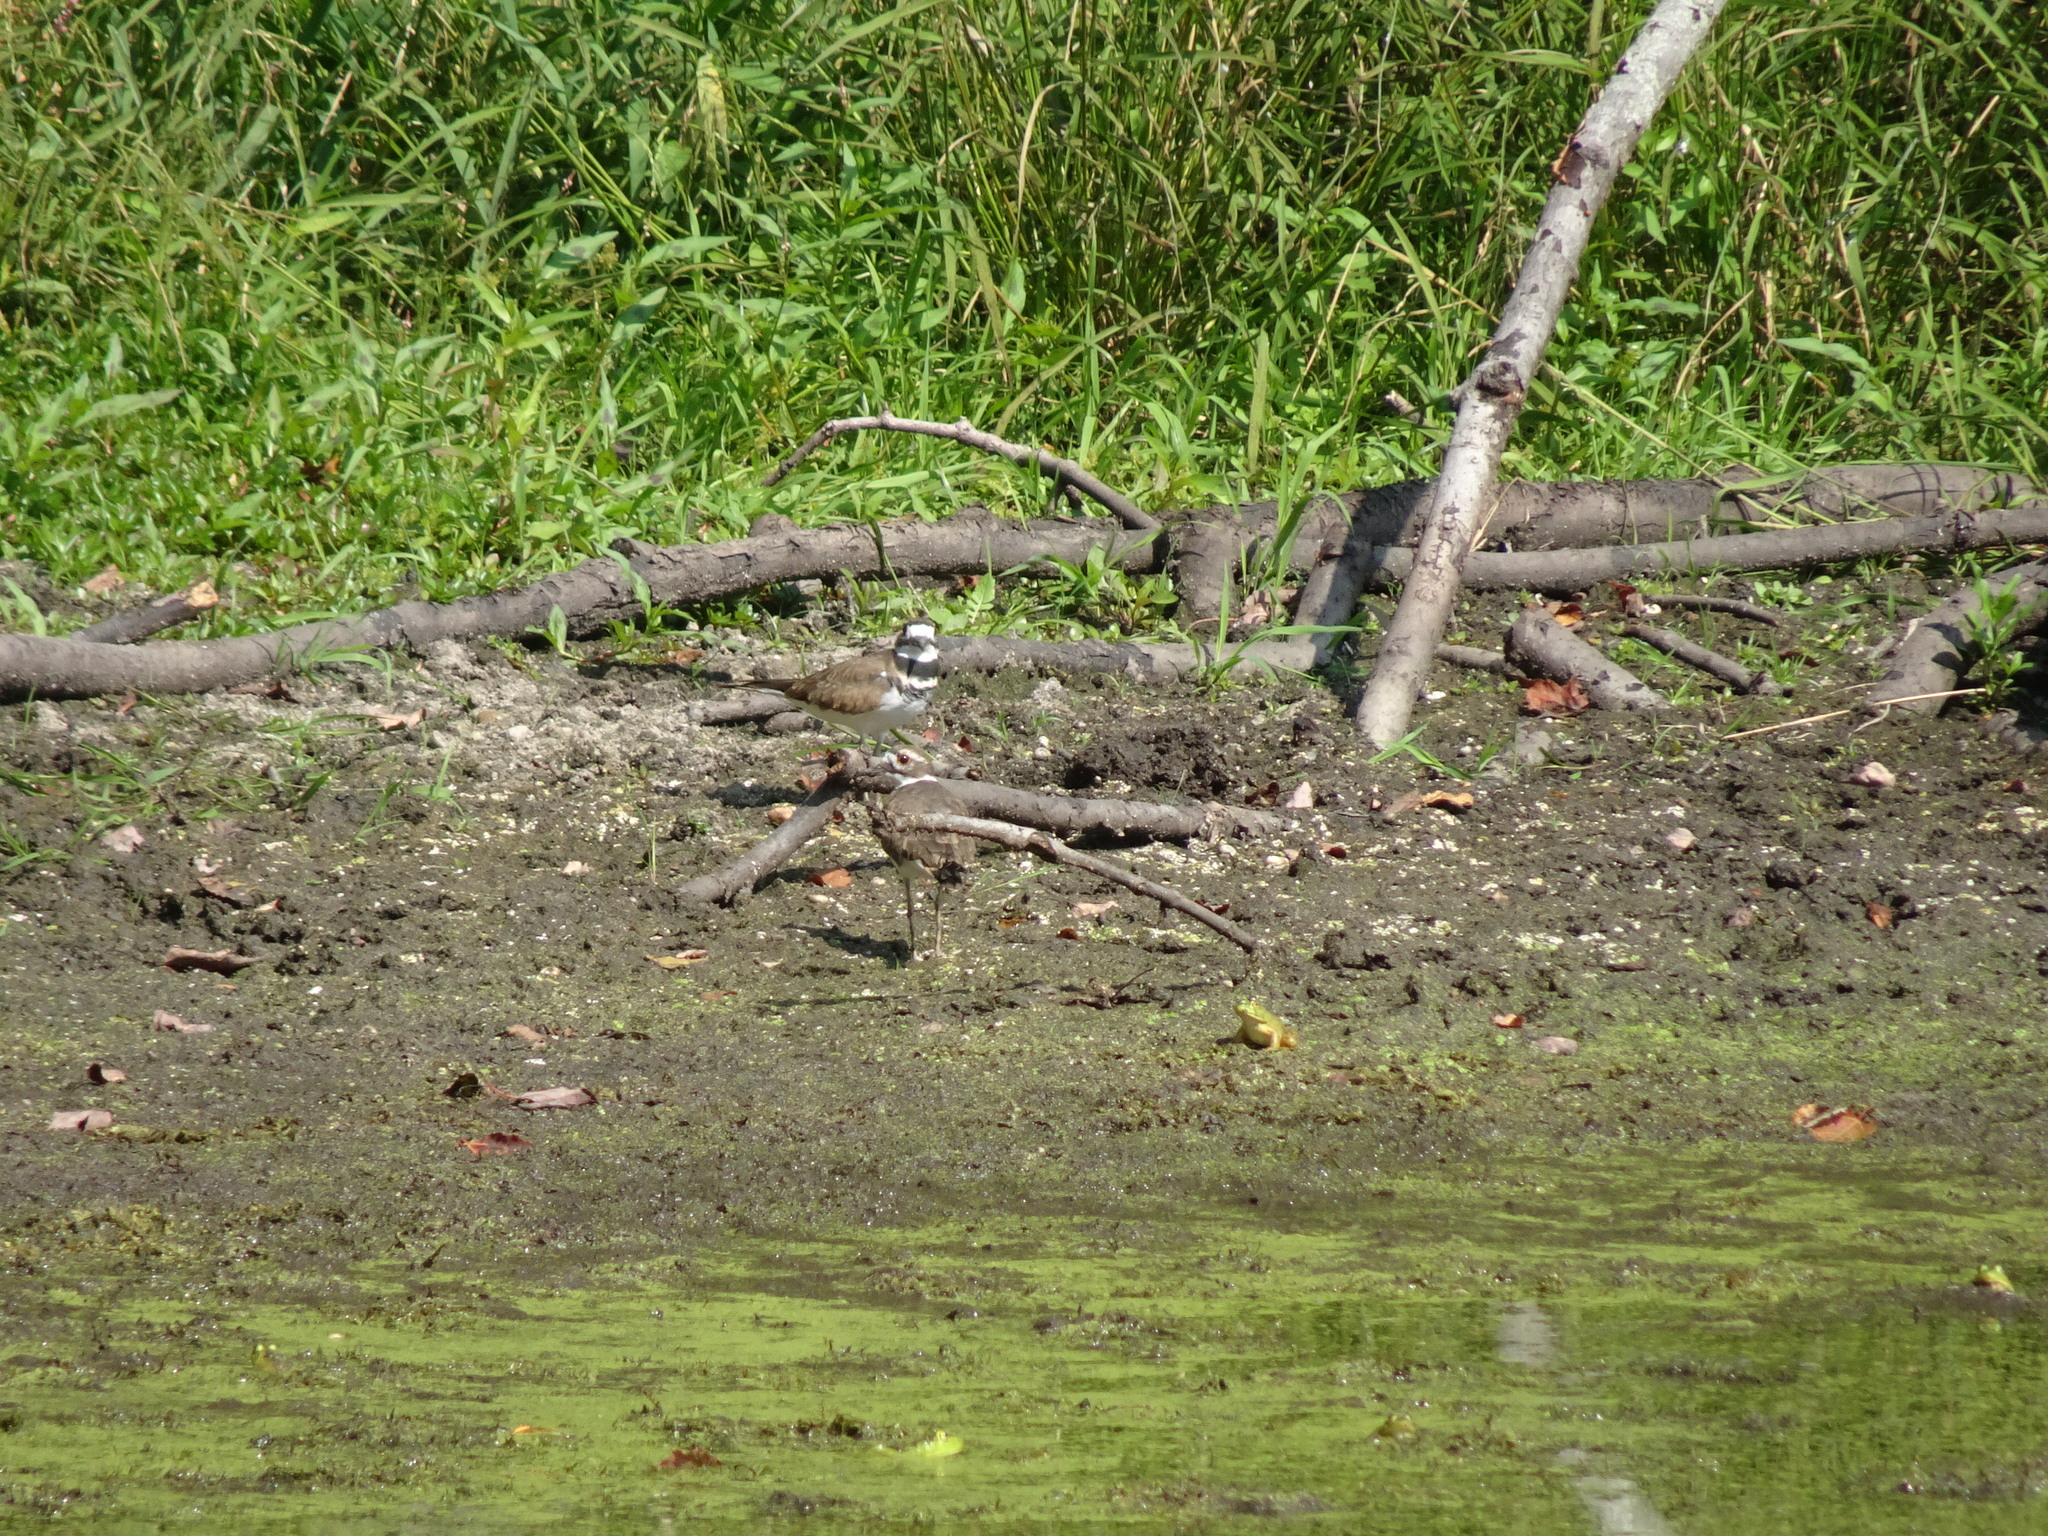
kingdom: Animalia
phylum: Chordata
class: Aves
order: Charadriiformes
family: Charadriidae
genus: Charadrius
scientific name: Charadrius vociferus
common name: Killdeer
